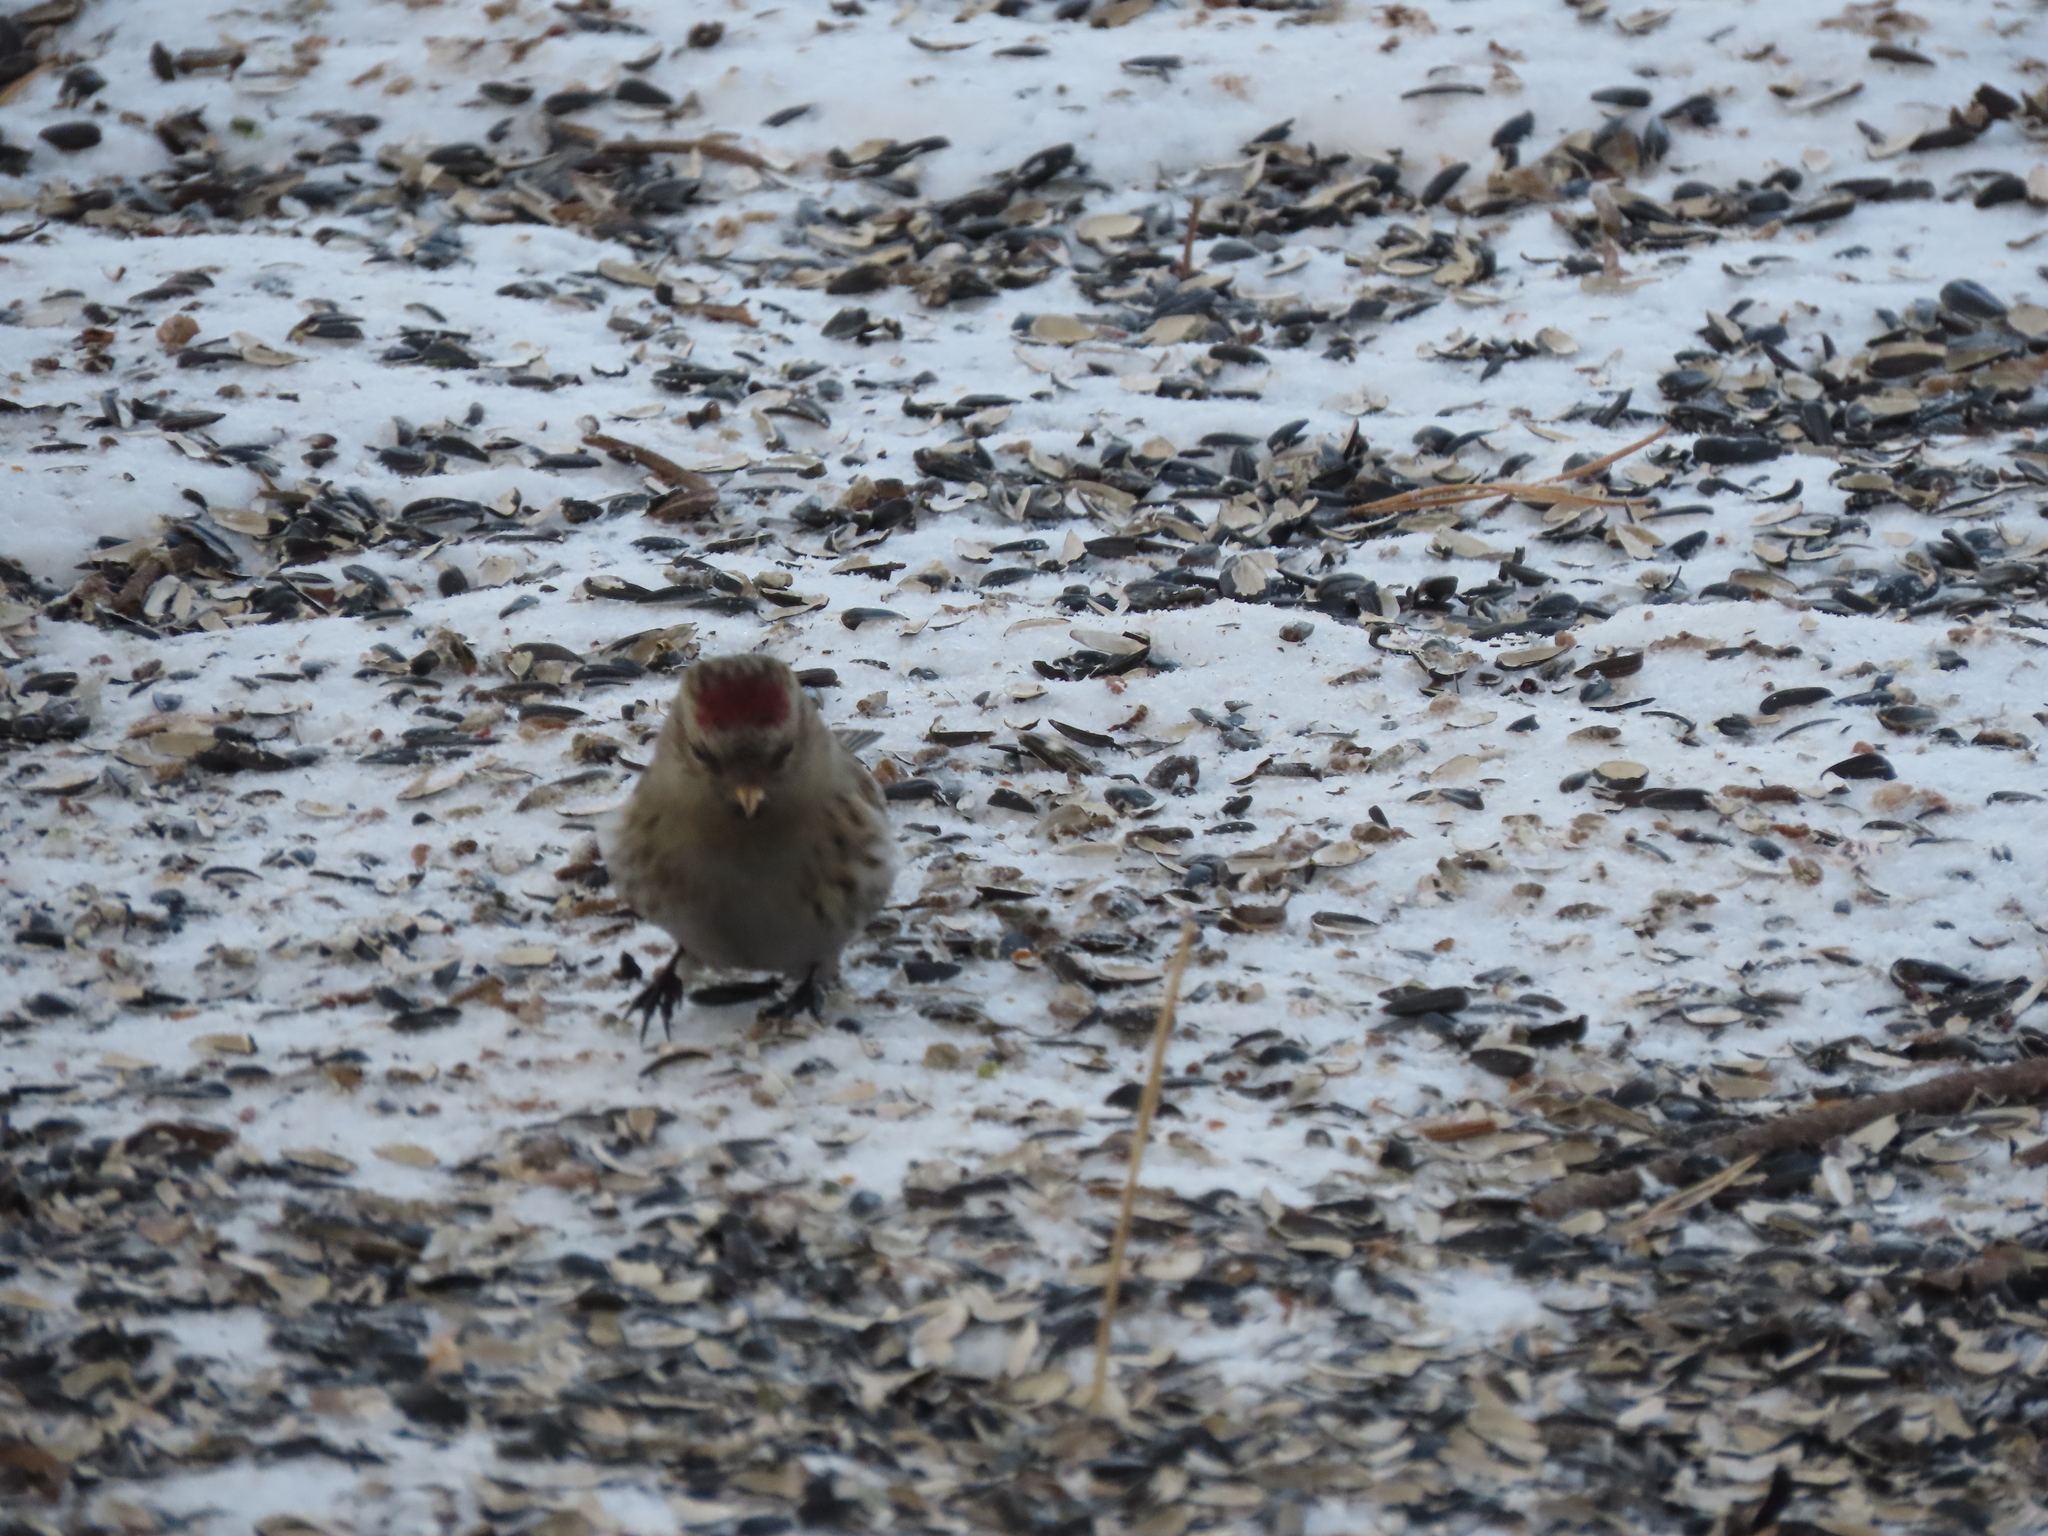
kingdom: Animalia
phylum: Chordata
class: Aves
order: Passeriformes
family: Fringillidae
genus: Acanthis
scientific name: Acanthis flammea
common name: Common redpoll
